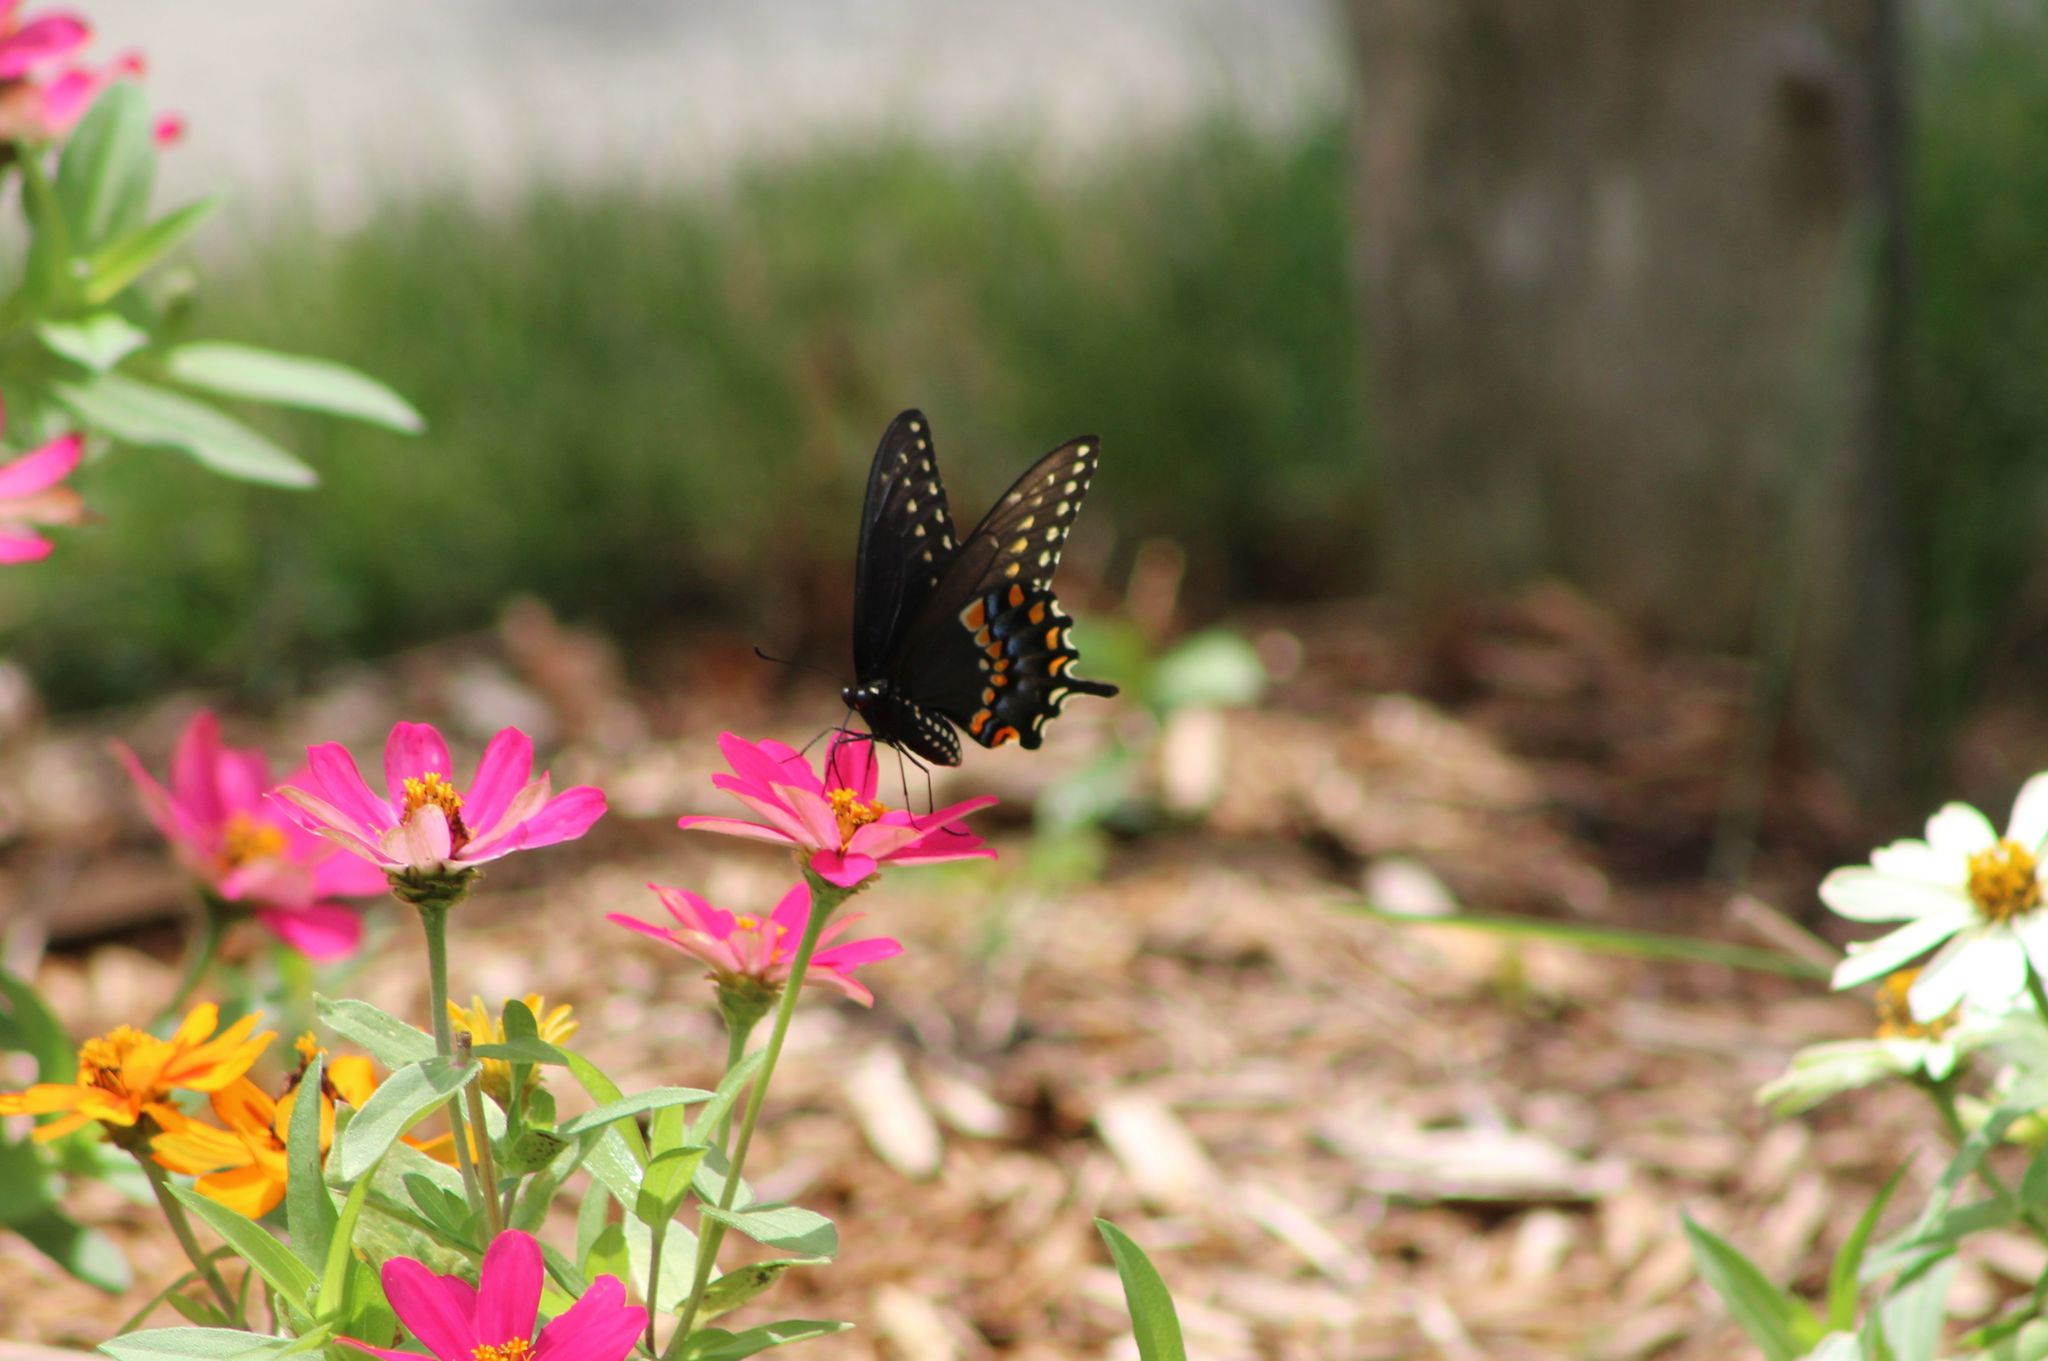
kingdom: Animalia
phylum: Arthropoda
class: Insecta
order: Lepidoptera
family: Papilionidae
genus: Papilio
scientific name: Papilio polyxenes
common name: Black swallowtail
